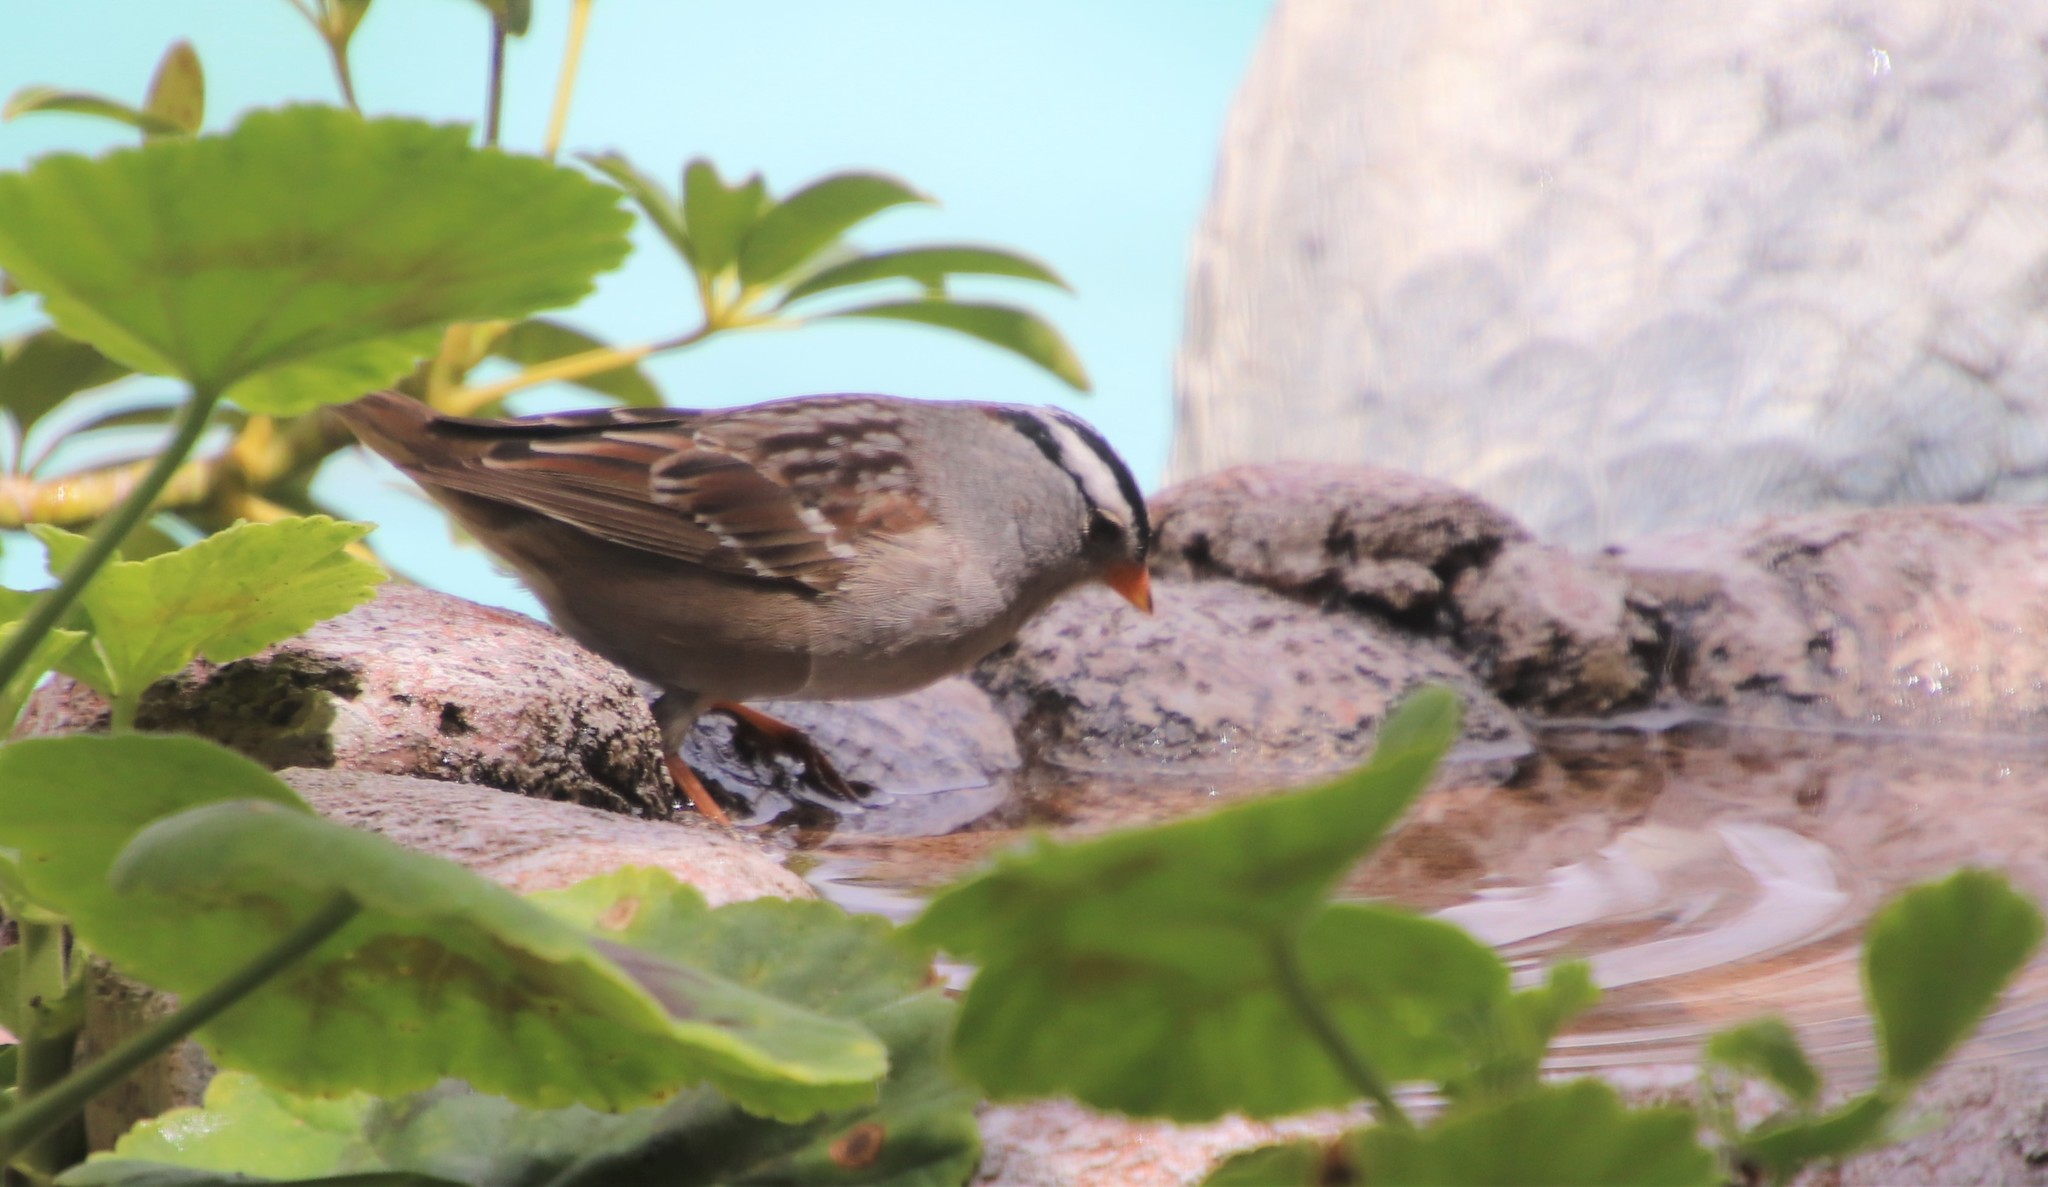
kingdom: Animalia
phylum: Chordata
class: Aves
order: Passeriformes
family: Passerellidae
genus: Zonotrichia
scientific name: Zonotrichia leucophrys
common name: White-crowned sparrow
